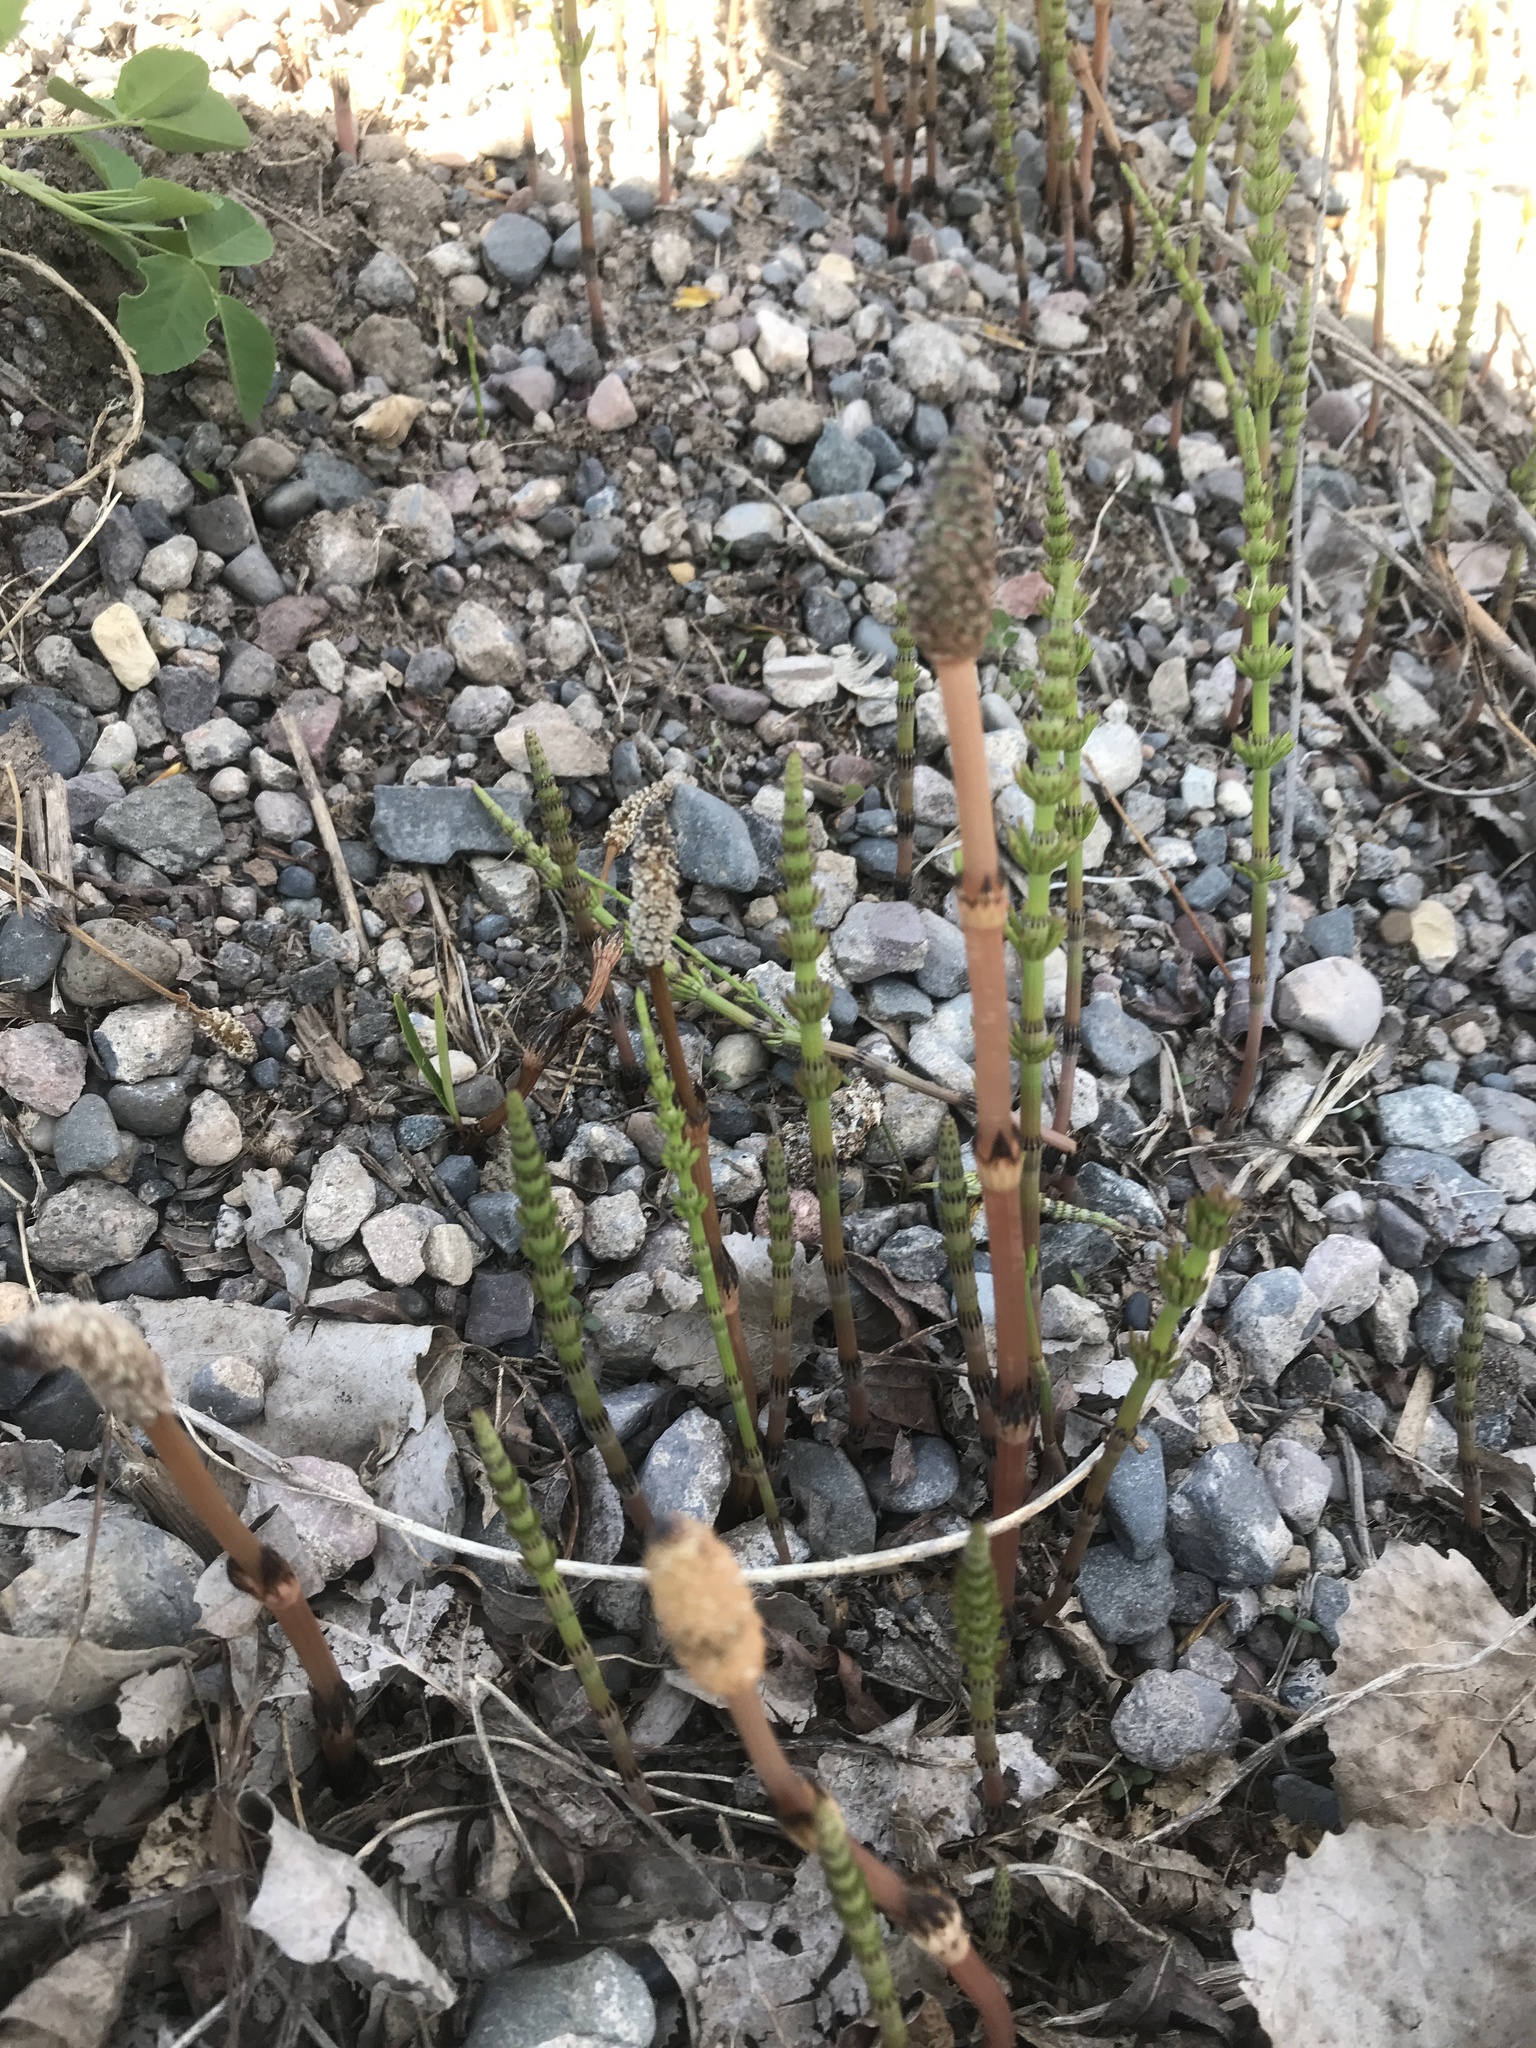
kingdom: Plantae
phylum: Tracheophyta
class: Polypodiopsida
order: Equisetales
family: Equisetaceae
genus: Equisetum
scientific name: Equisetum arvense
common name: Field horsetail
